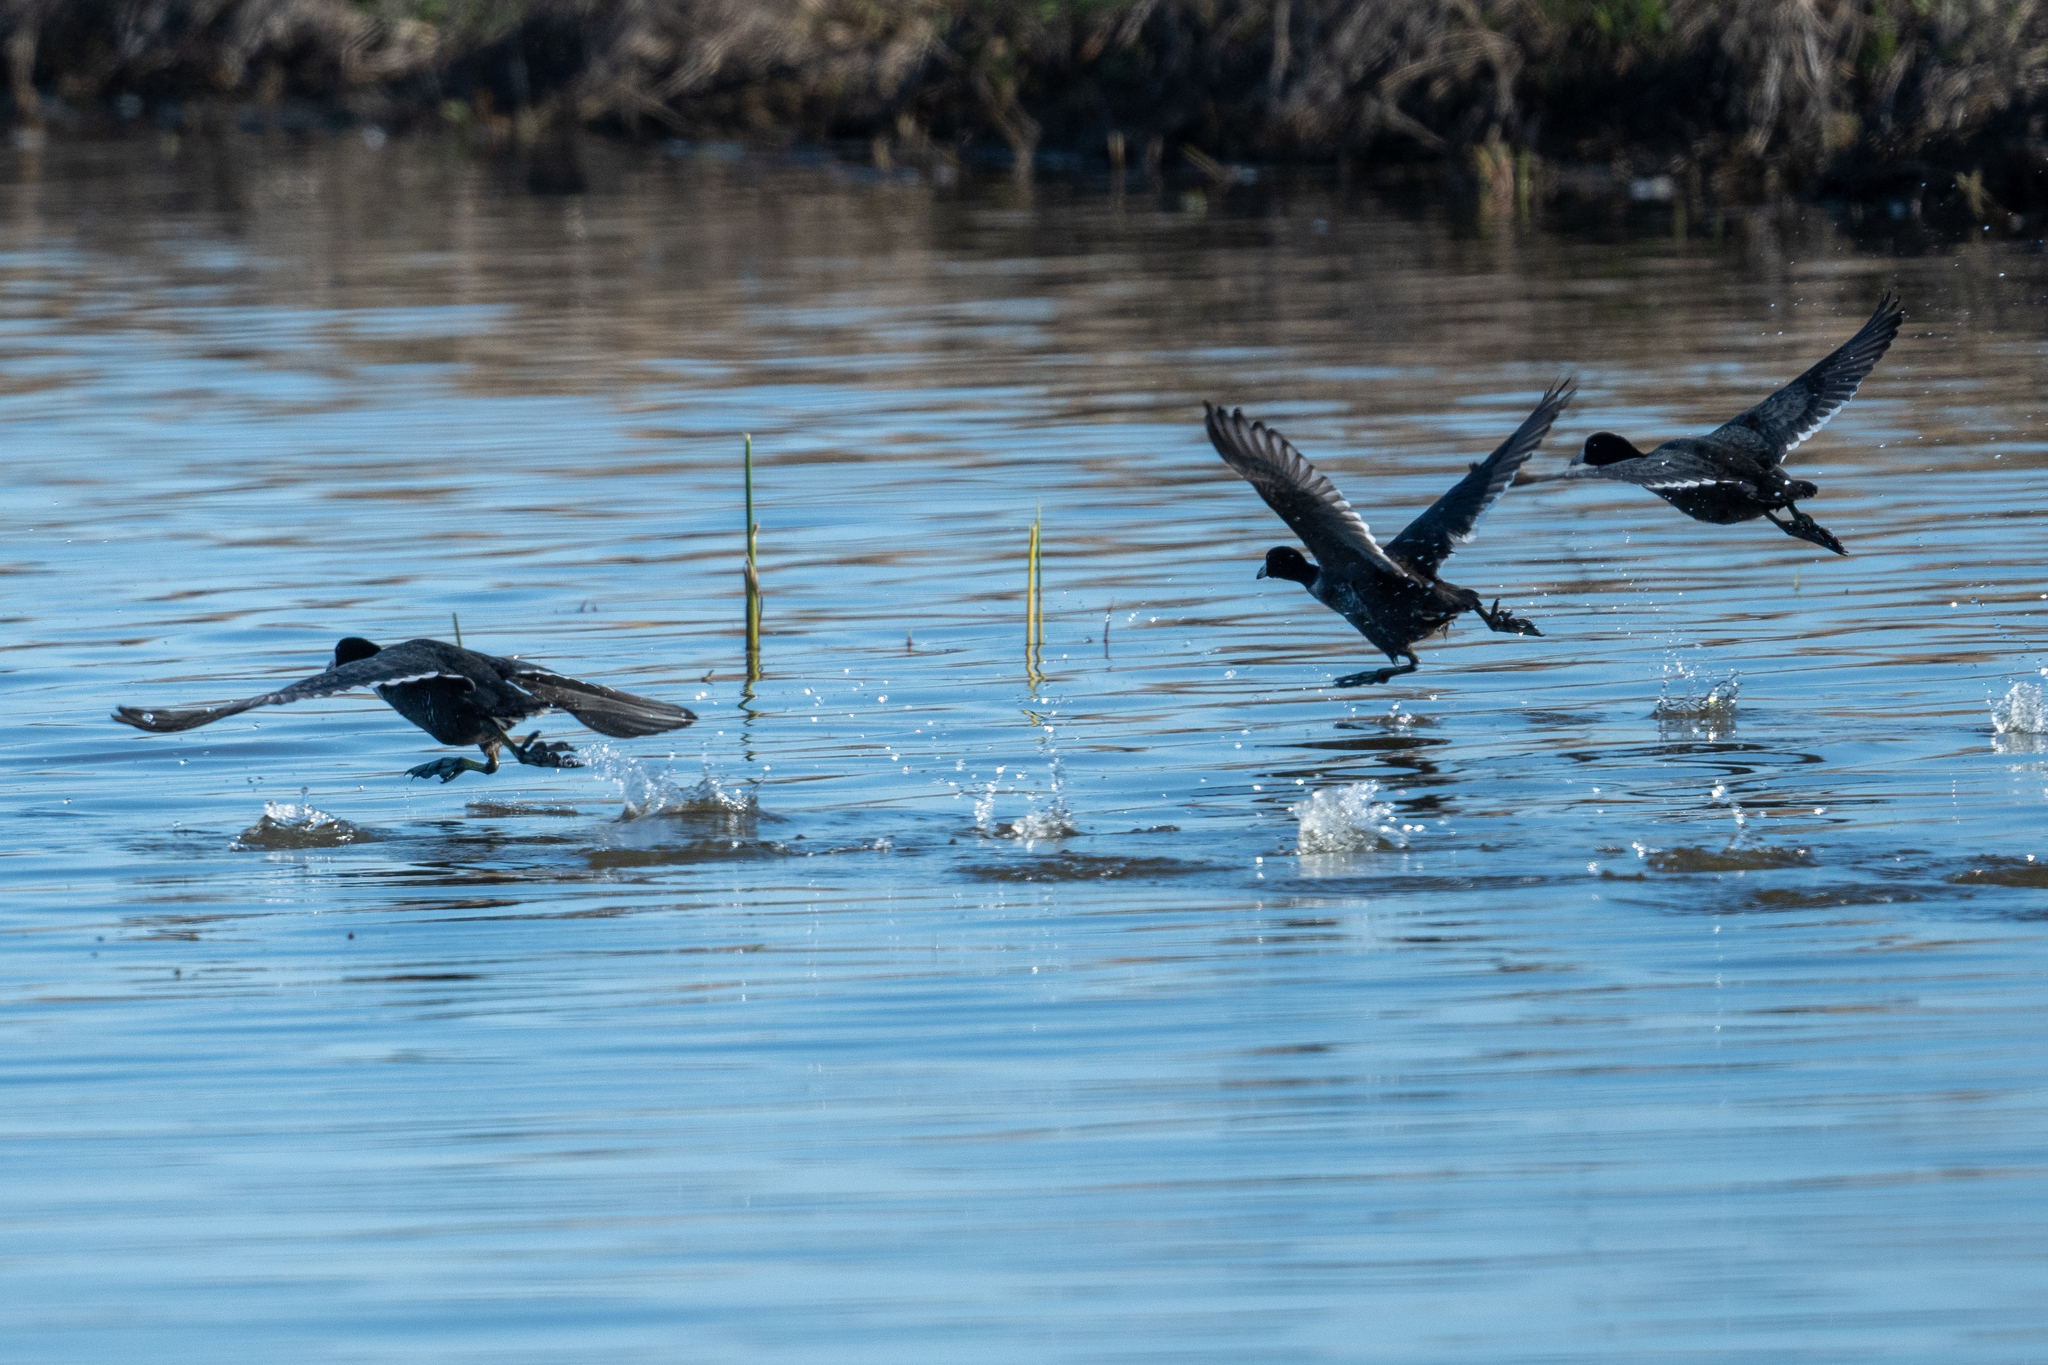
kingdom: Animalia
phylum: Chordata
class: Aves
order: Gruiformes
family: Rallidae
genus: Fulica
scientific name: Fulica americana
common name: American coot
